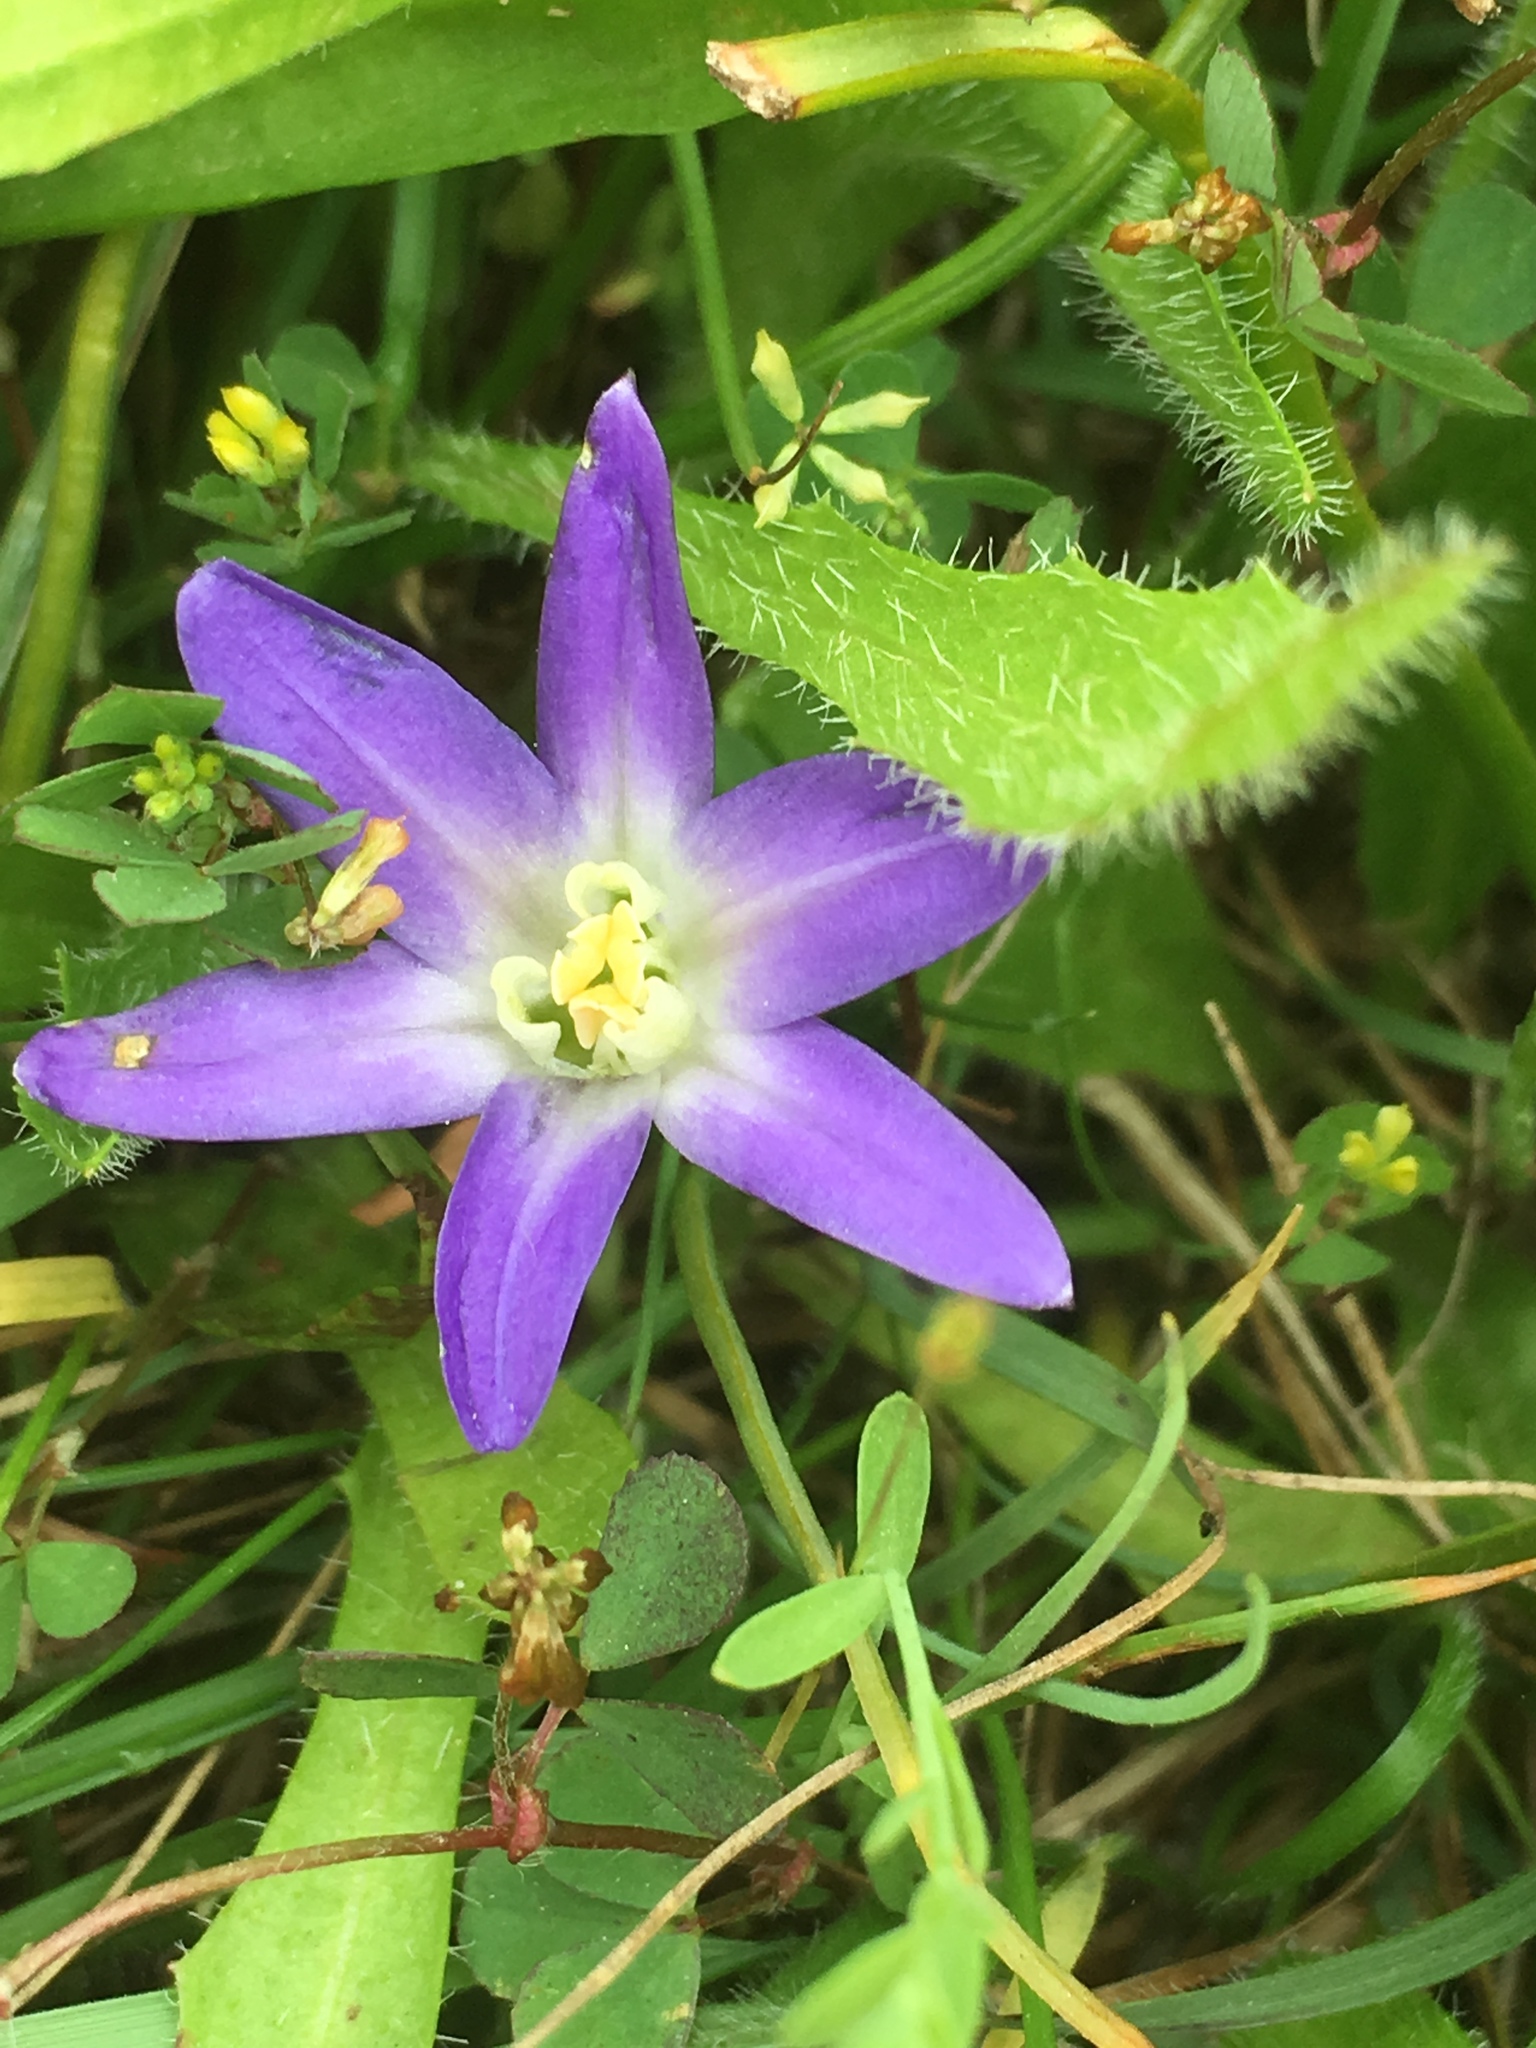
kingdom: Plantae
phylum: Tracheophyta
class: Liliopsida
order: Asparagales
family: Asparagaceae
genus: Brodiaea
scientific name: Brodiaea terrestris
